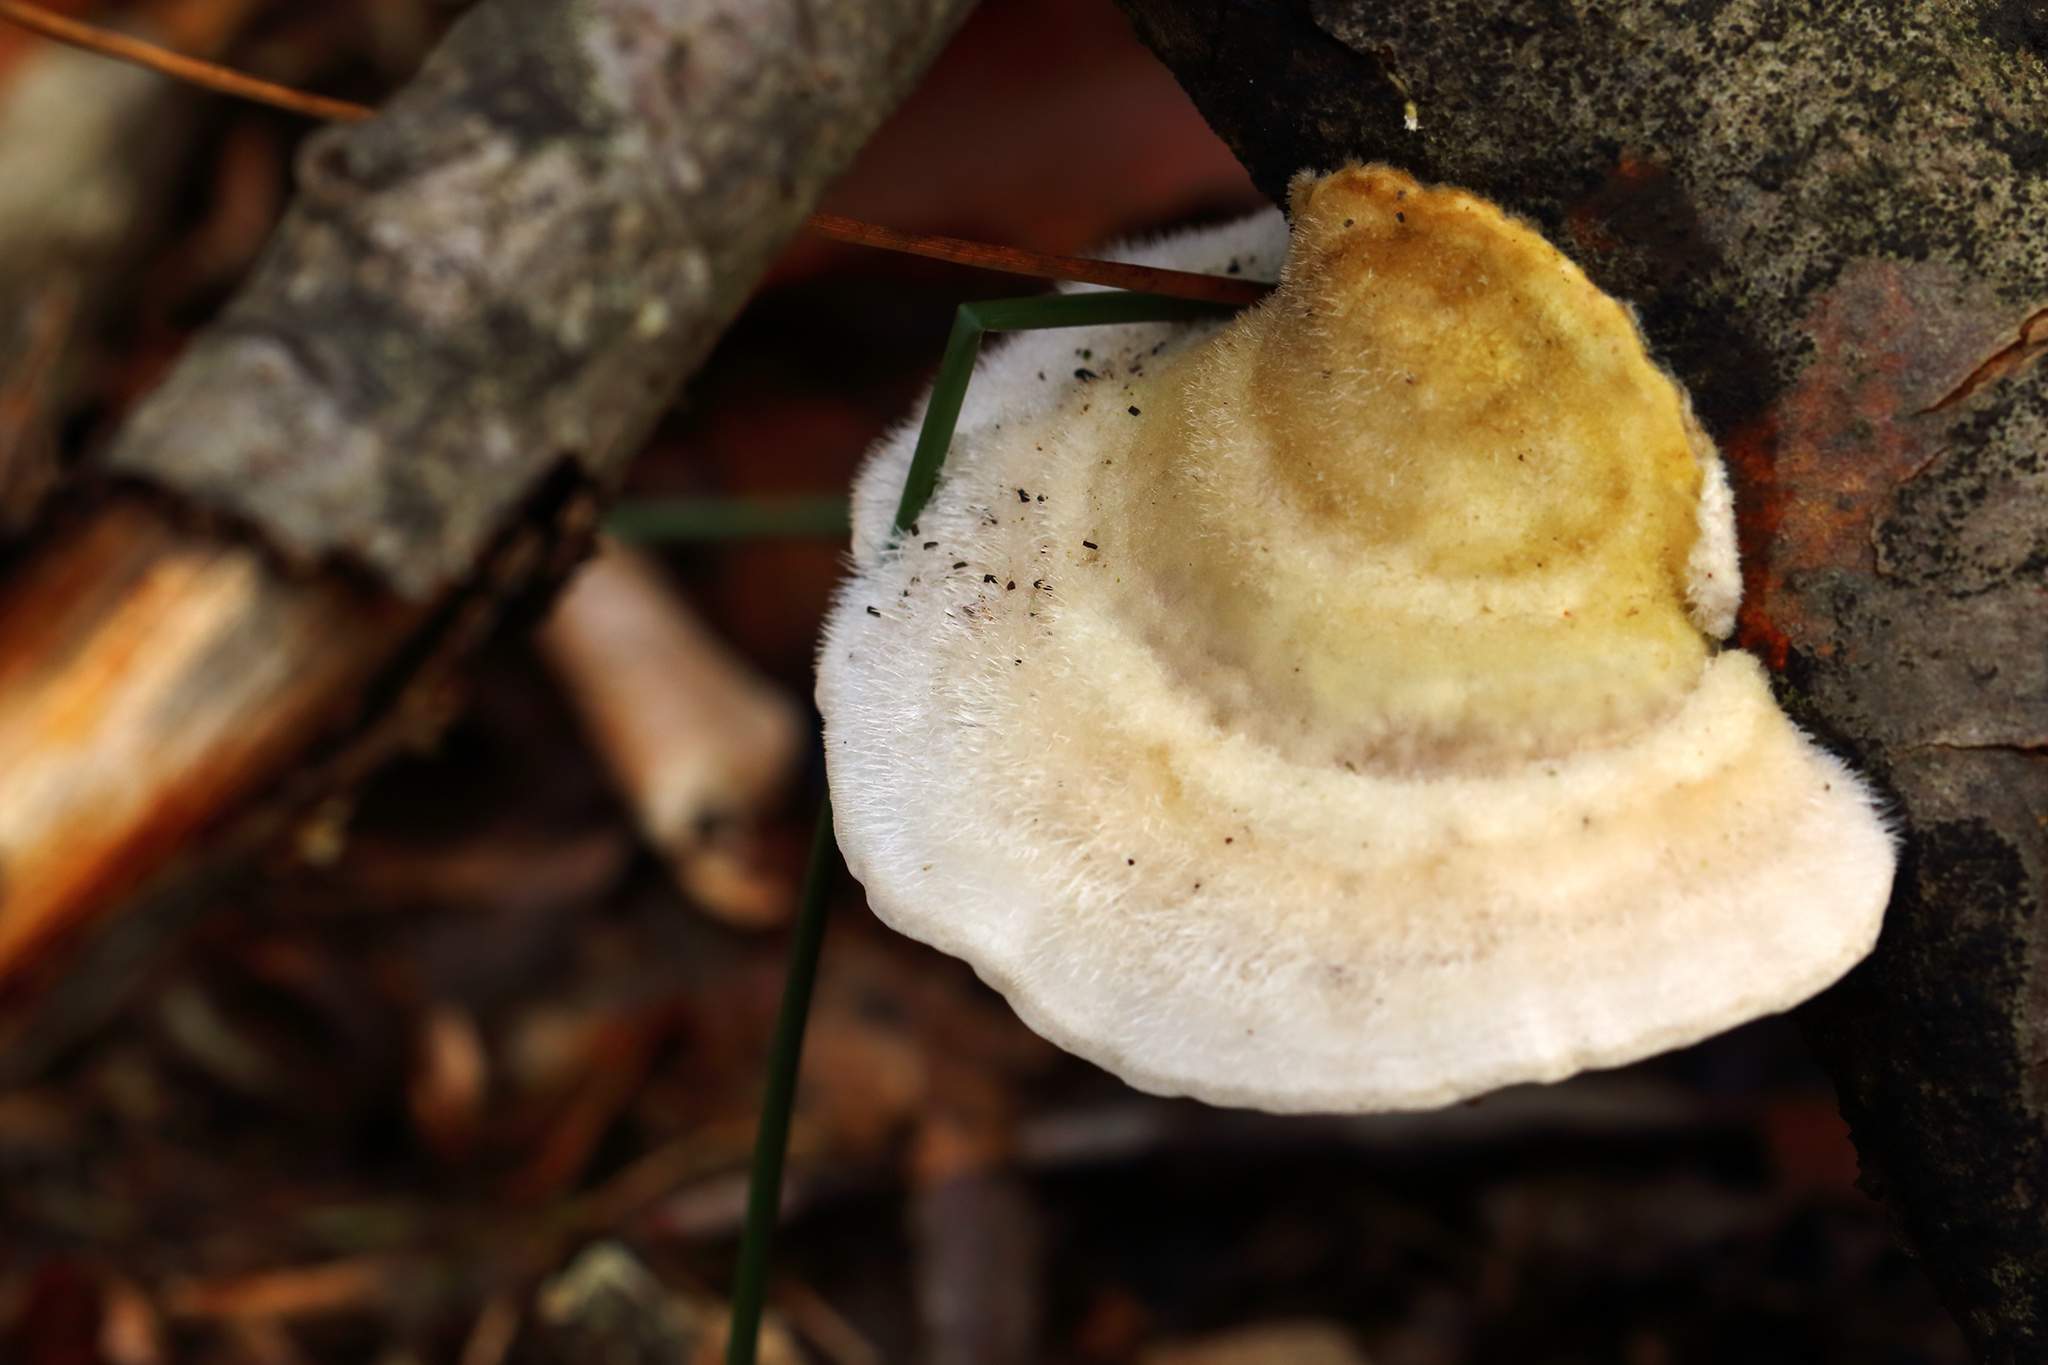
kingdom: Fungi
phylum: Basidiomycota
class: Agaricomycetes
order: Polyporales
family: Polyporaceae
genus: Trametes
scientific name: Trametes hirsuta
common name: Hairy bracket
